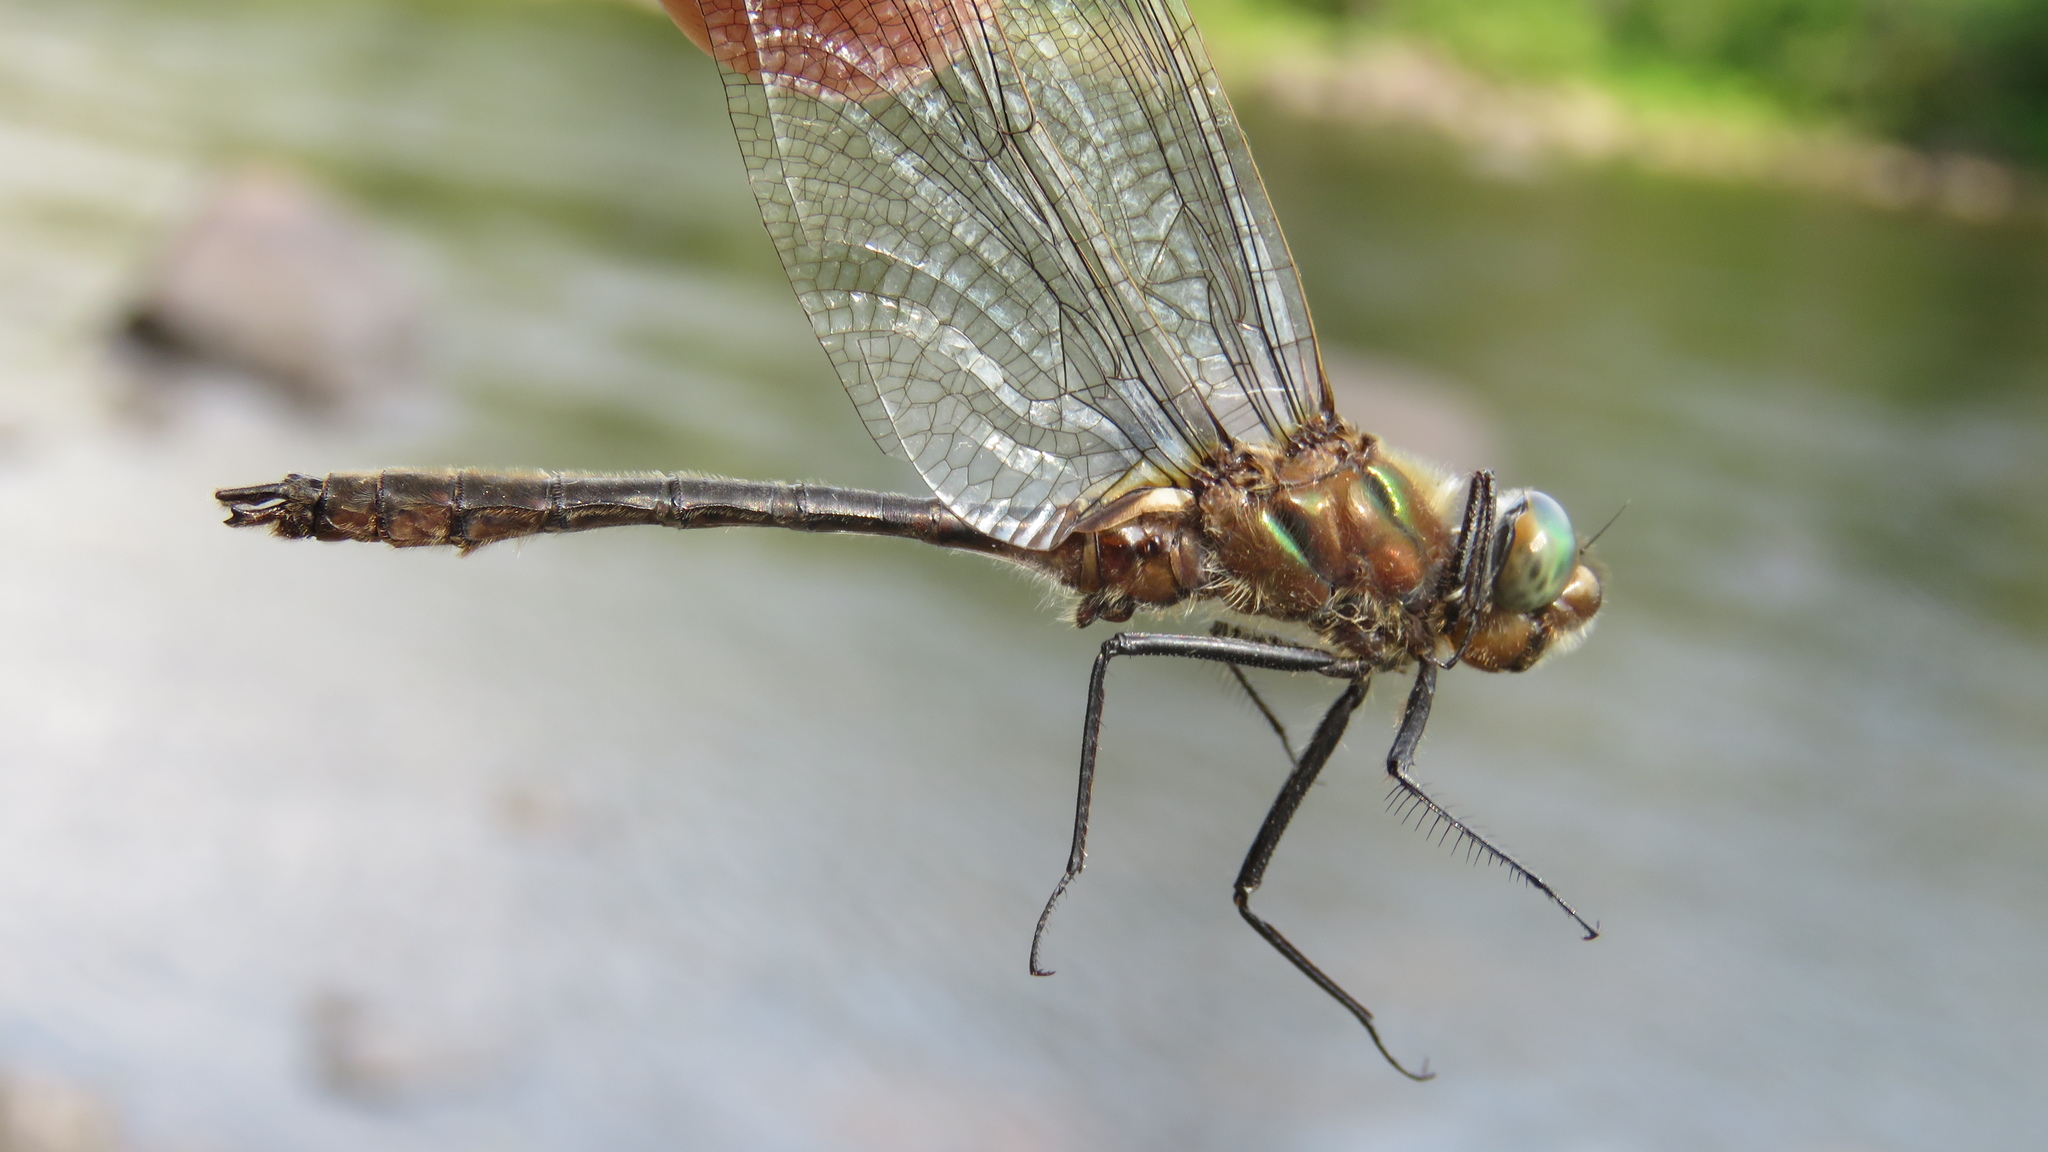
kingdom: Animalia
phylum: Arthropoda
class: Insecta
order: Odonata
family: Corduliidae
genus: Cordulia
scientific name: Cordulia shurtleffii
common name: American emerald
